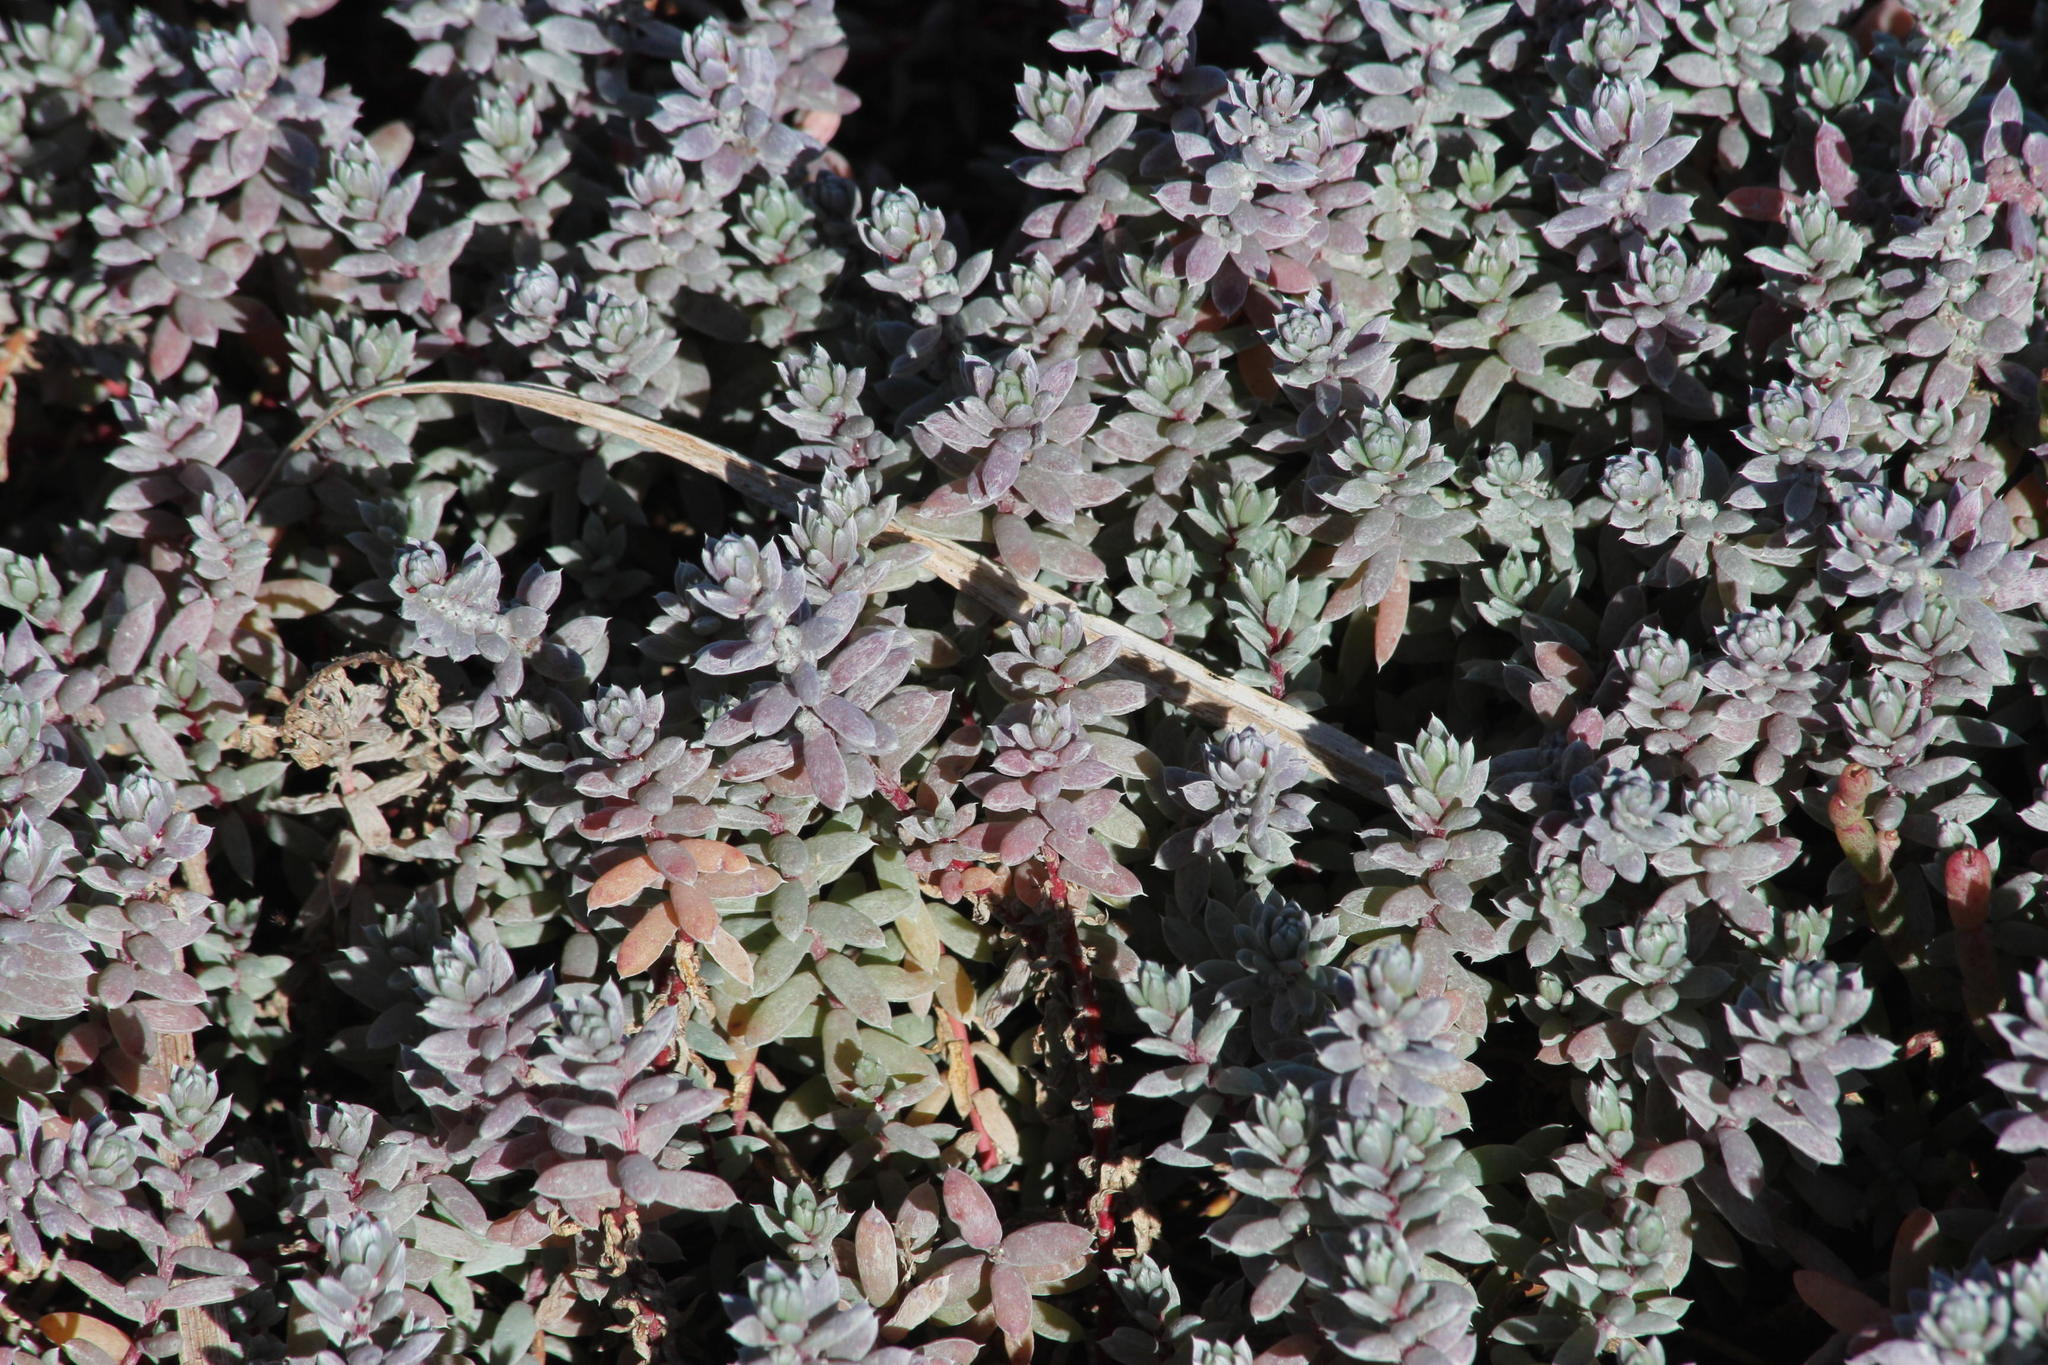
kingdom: Plantae
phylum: Tracheophyta
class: Magnoliopsida
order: Caryophyllales
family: Amaranthaceae
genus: Chenolea
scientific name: Chenolea diffusa
